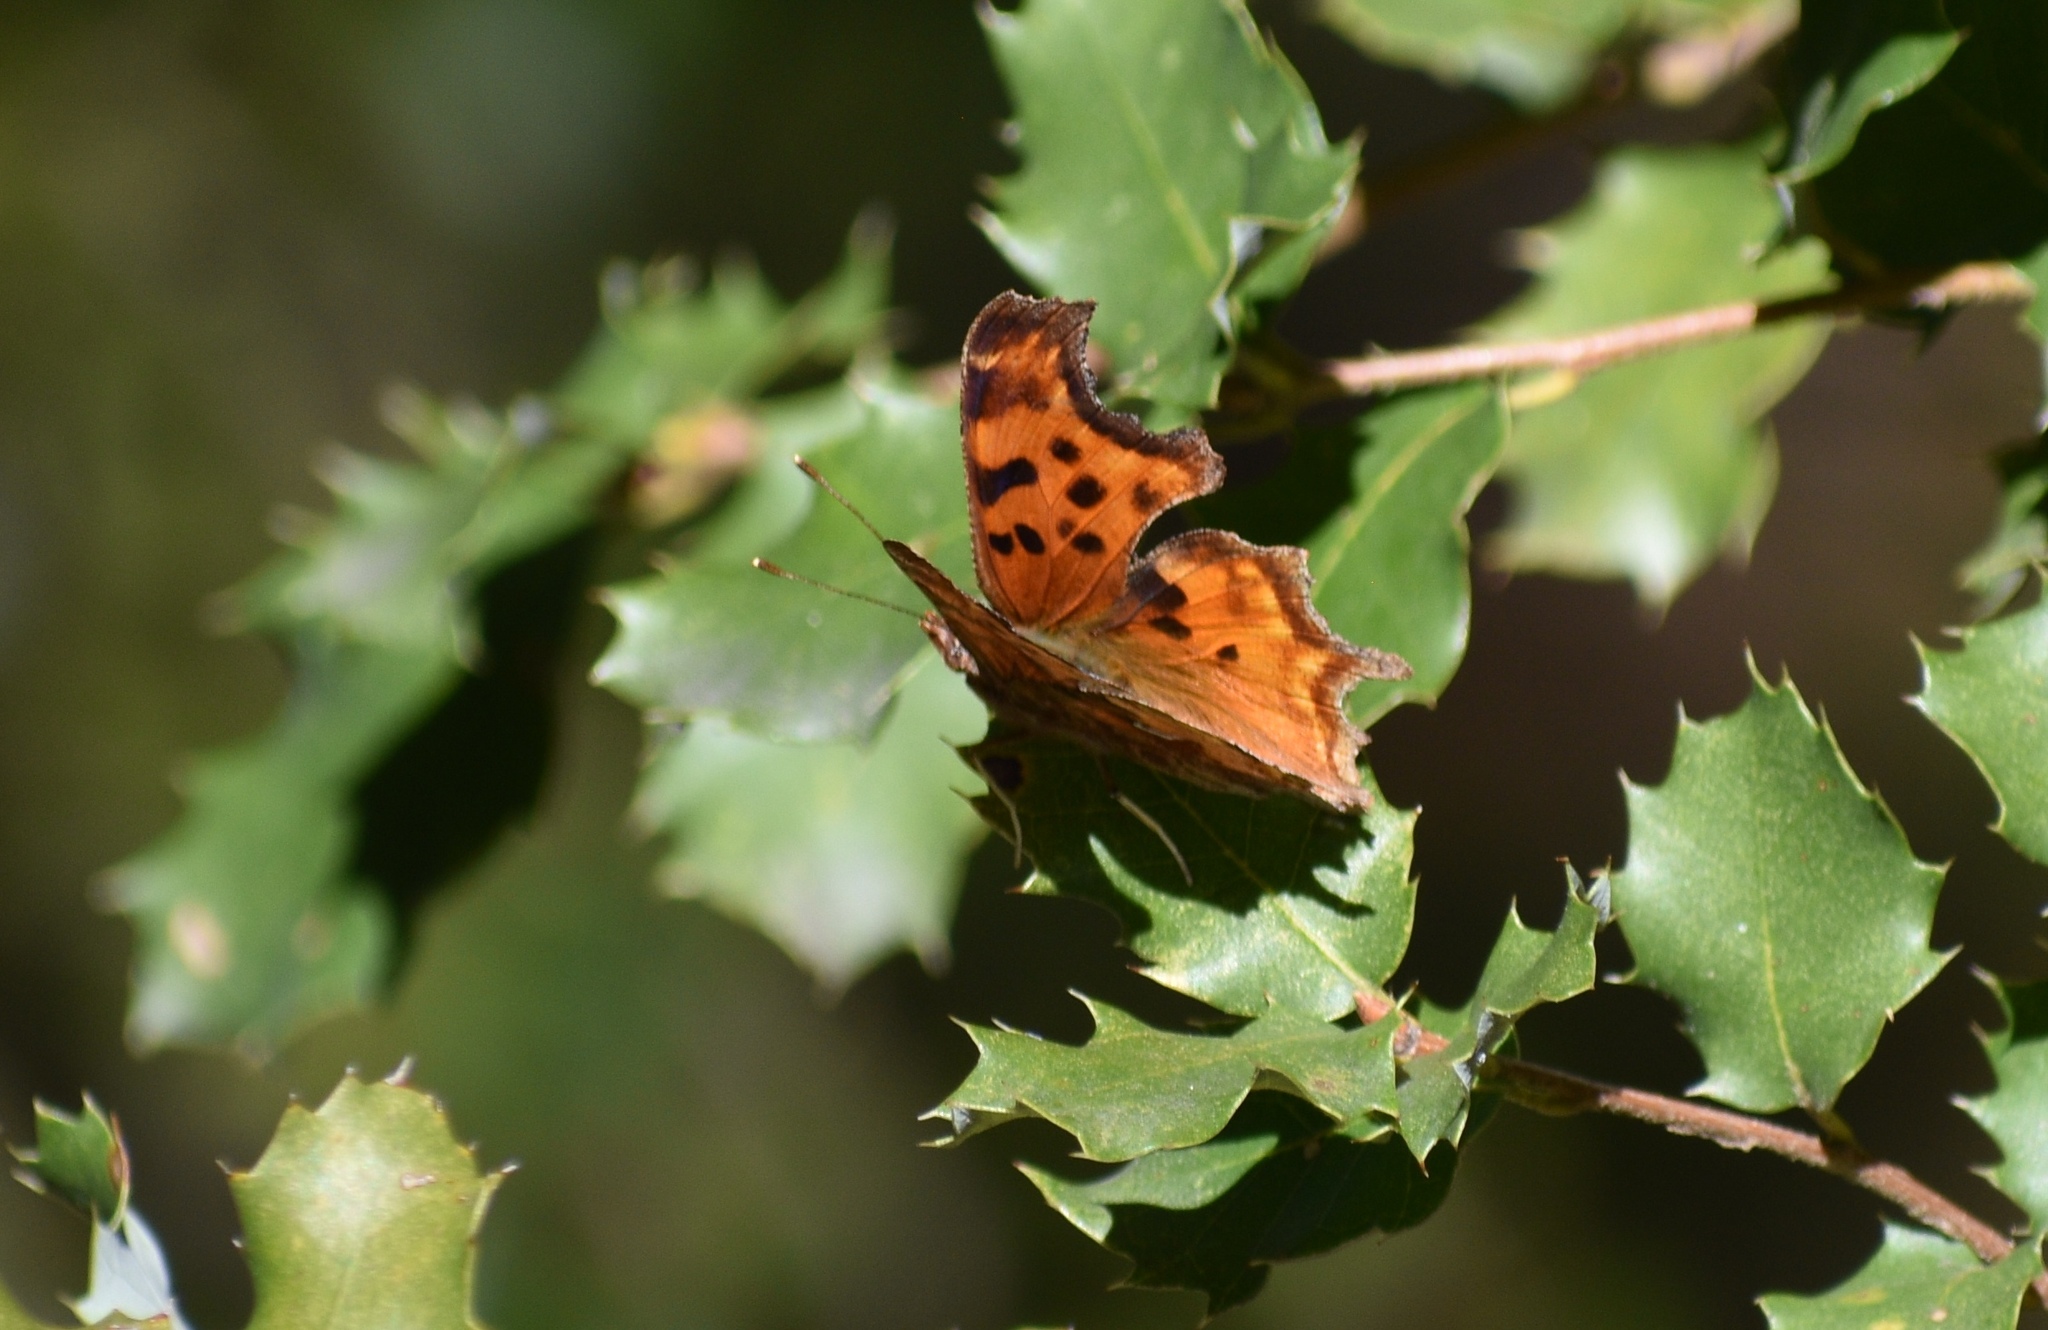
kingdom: Animalia
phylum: Arthropoda
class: Insecta
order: Lepidoptera
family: Nymphalidae
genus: Polygonia
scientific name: Polygonia satyrus
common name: Satyr angle wing
